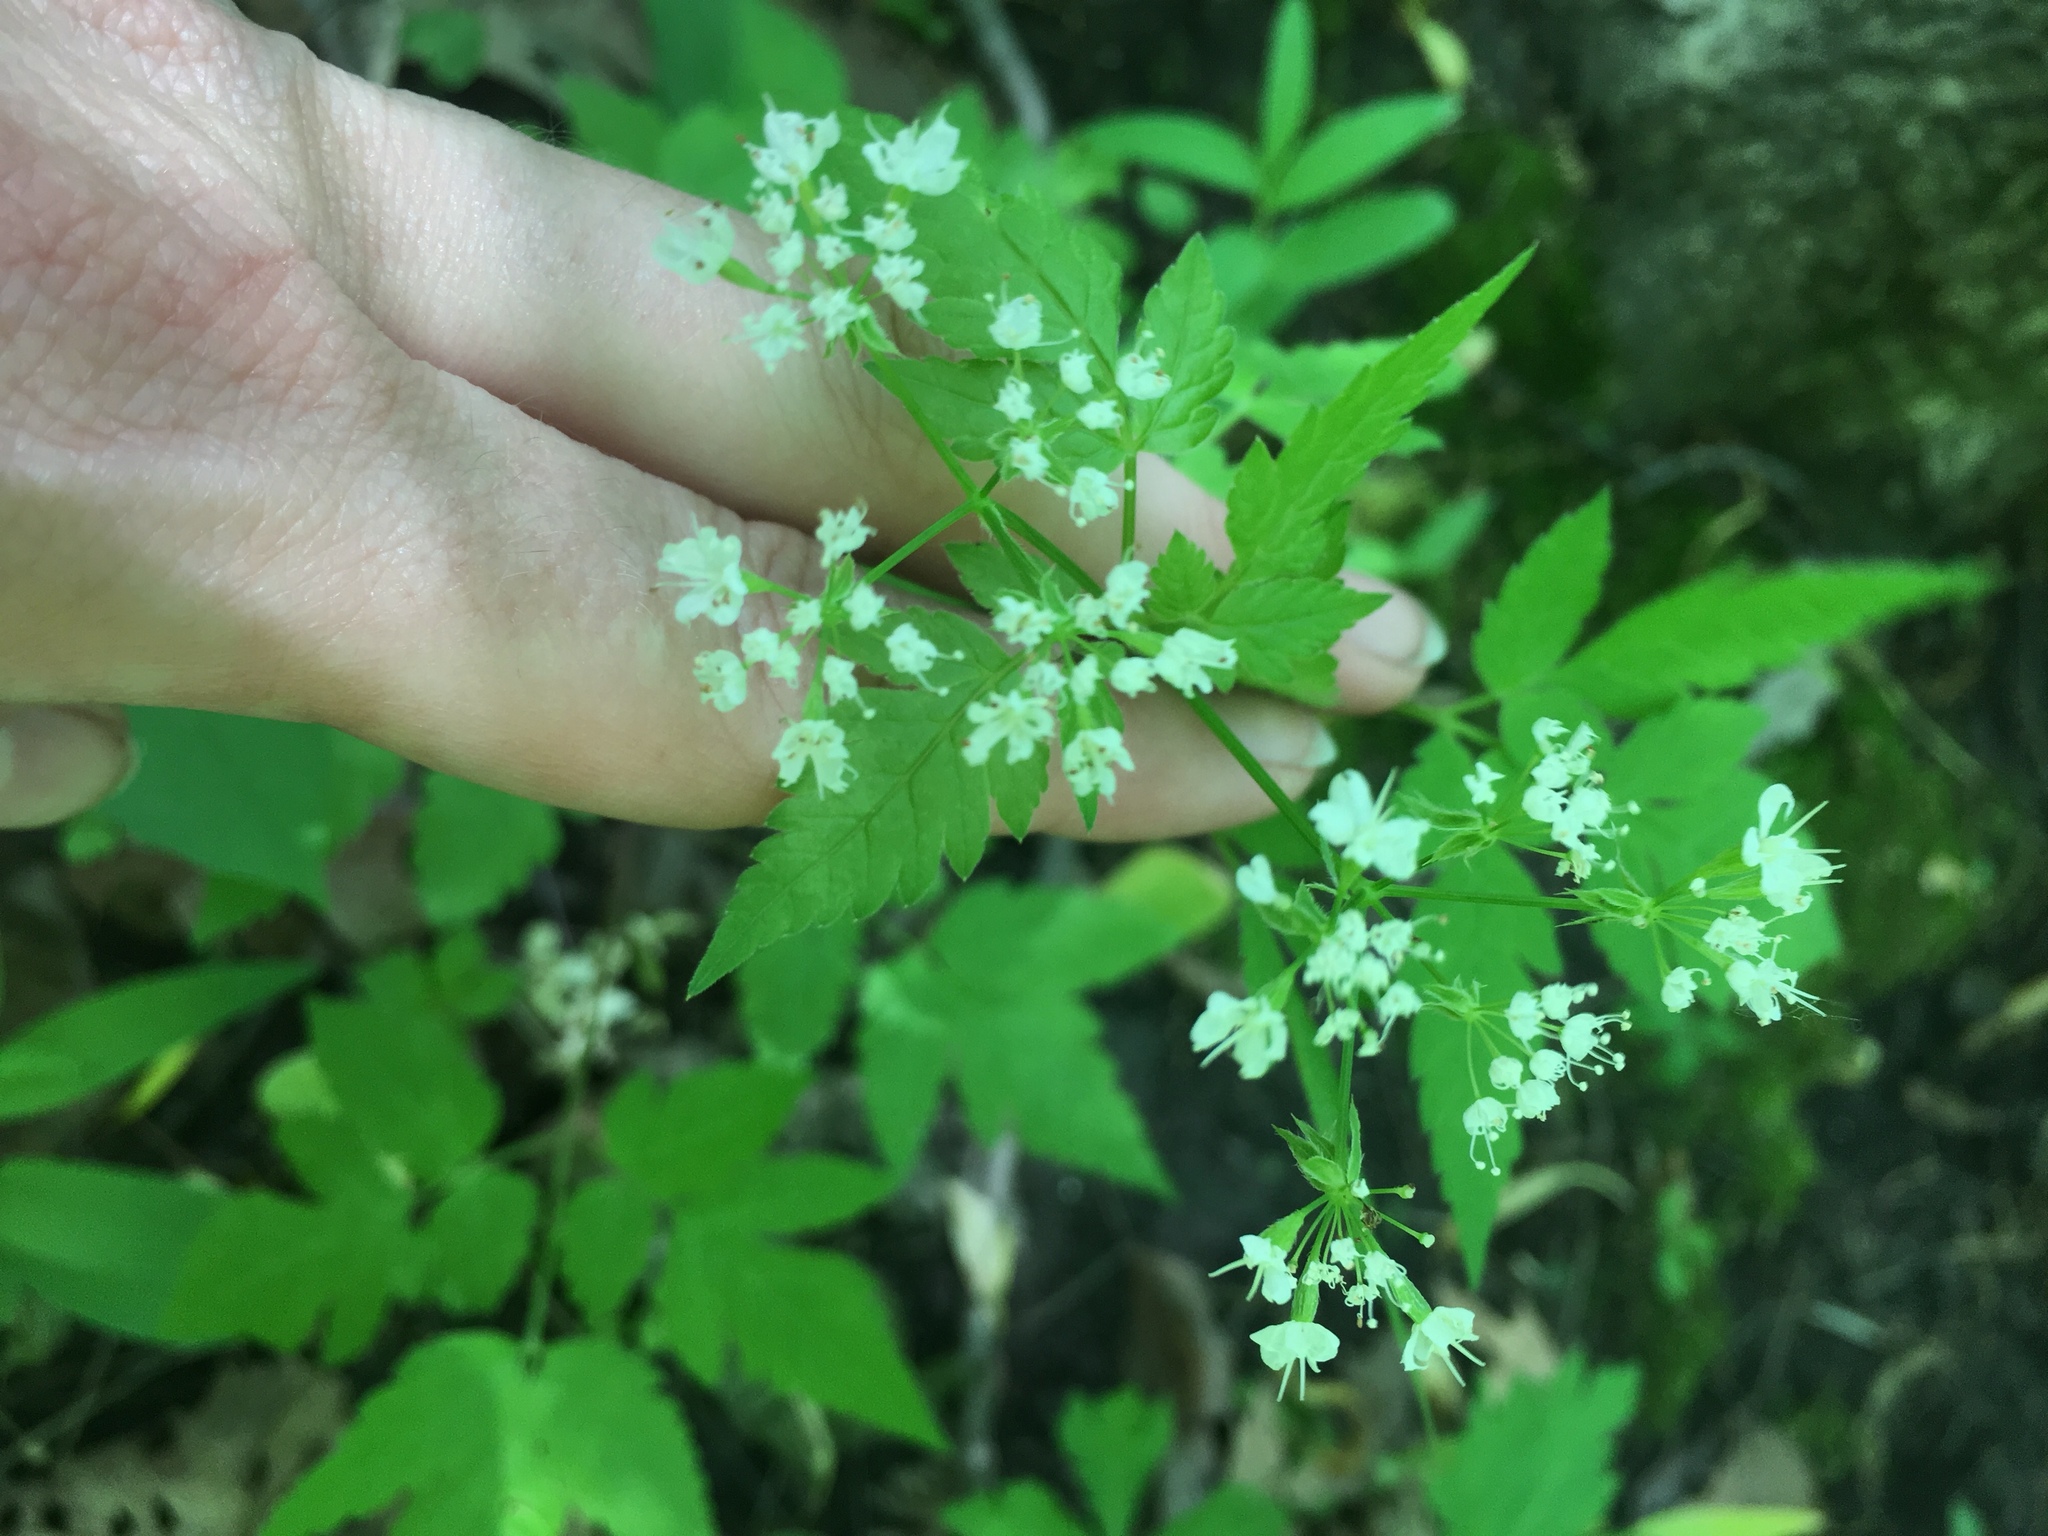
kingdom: Plantae
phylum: Tracheophyta
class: Magnoliopsida
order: Apiales
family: Apiaceae
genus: Osmorhiza
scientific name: Osmorhiza longistylis
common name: Smooth sweet cicely
